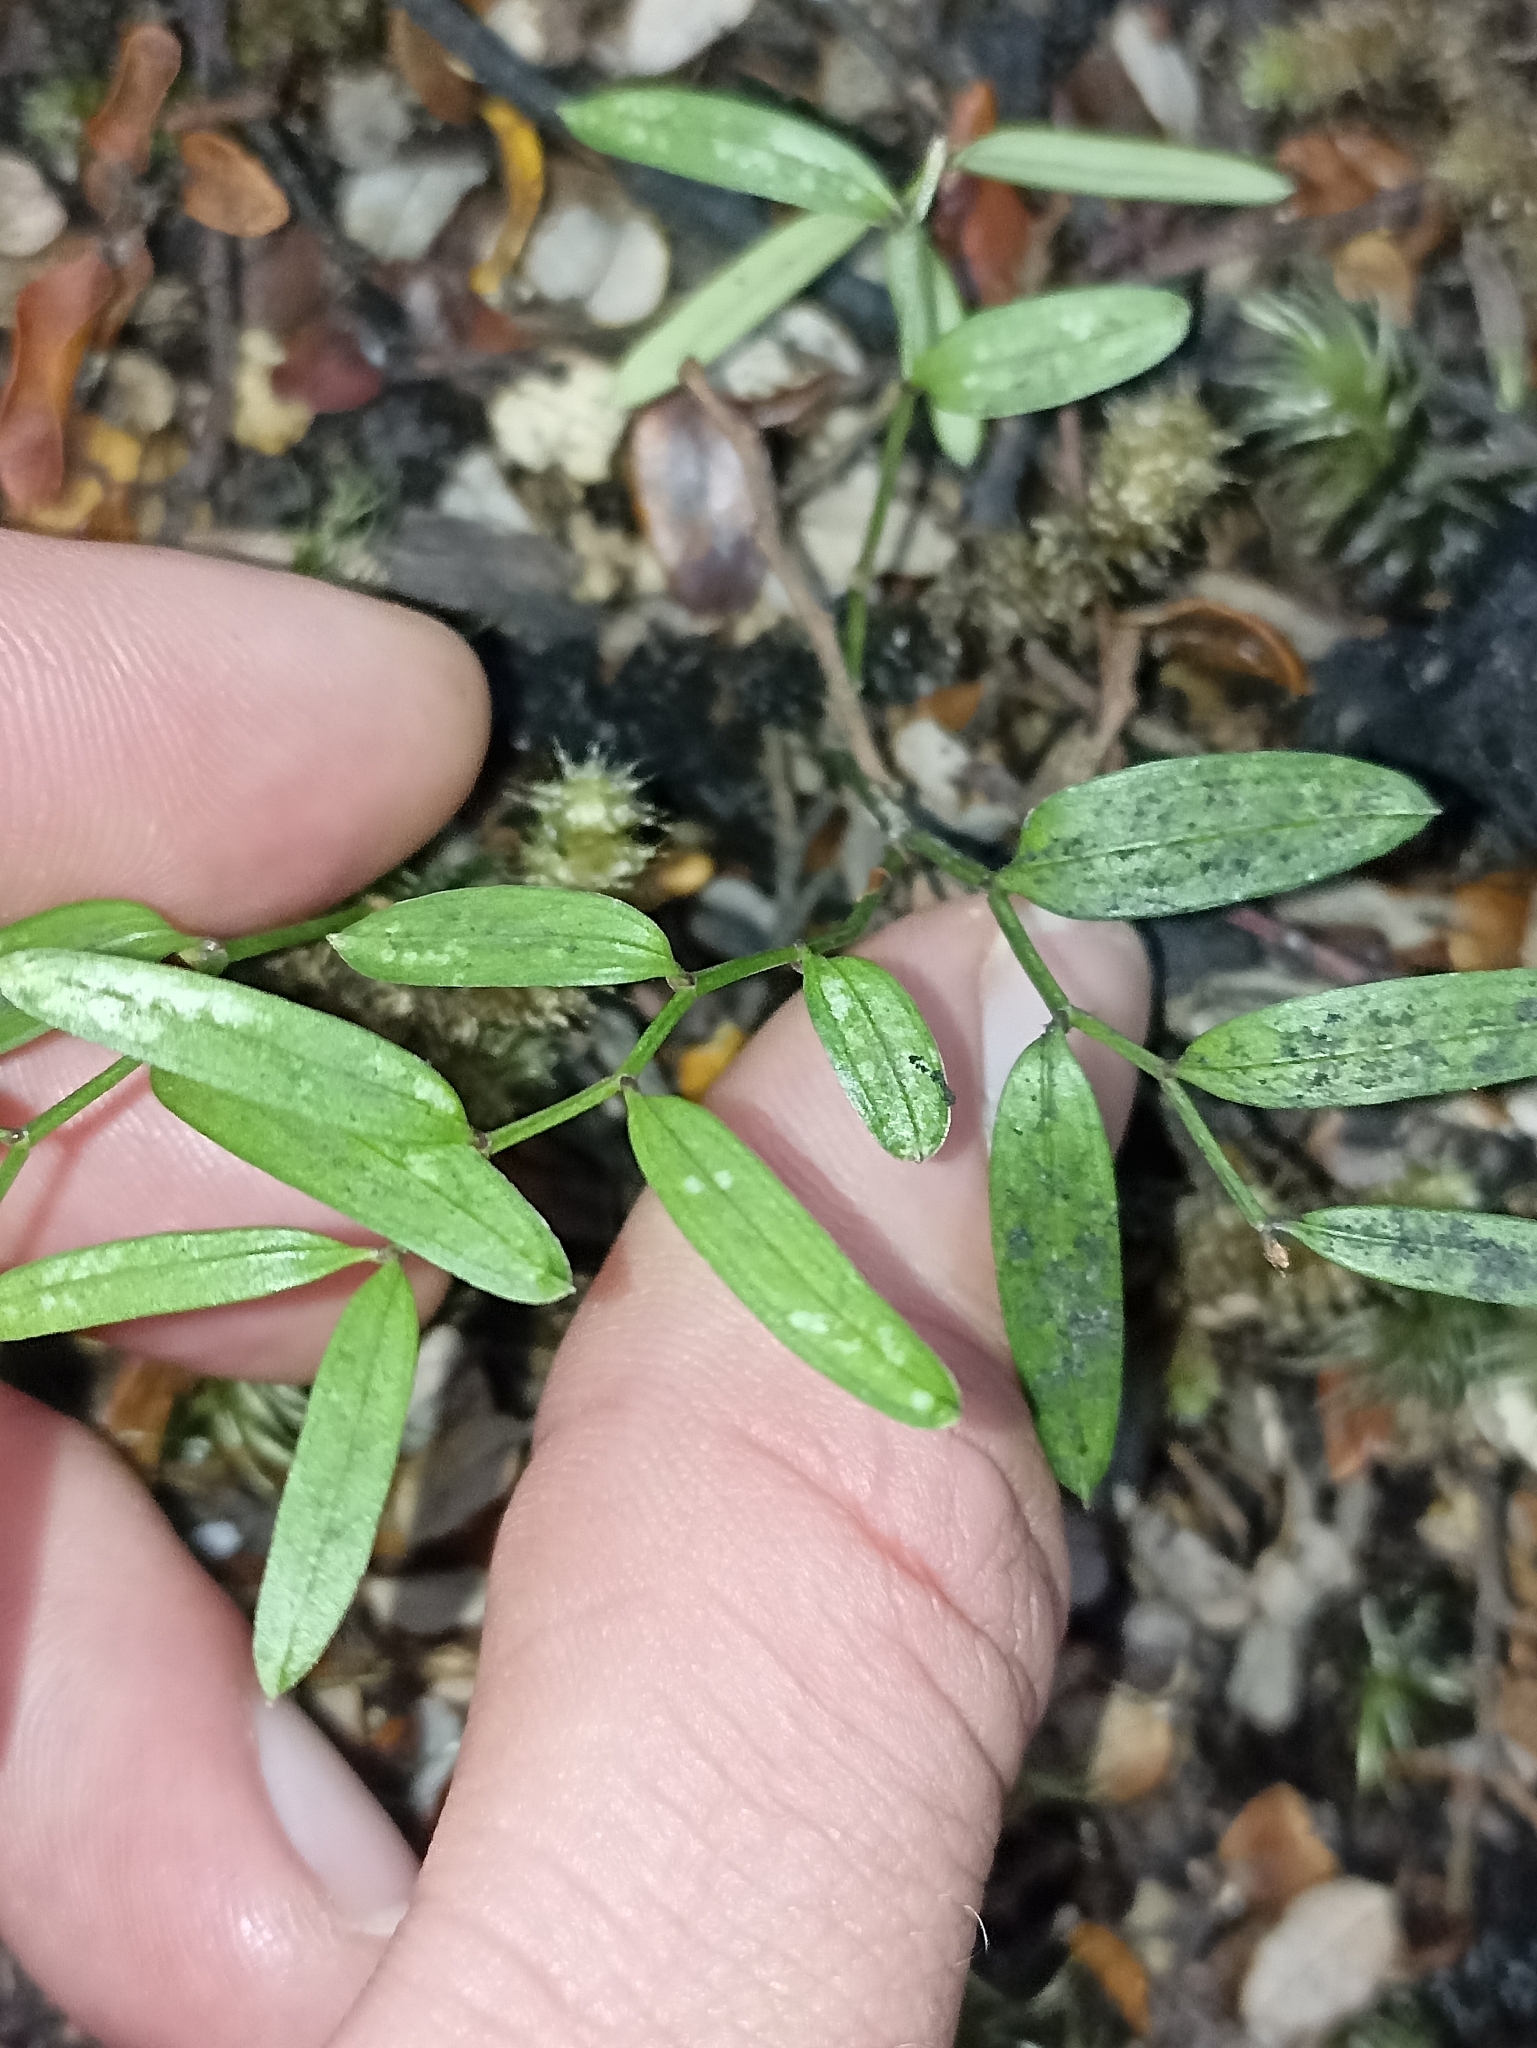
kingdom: Plantae
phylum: Tracheophyta
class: Liliopsida
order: Liliales
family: Alstroemeriaceae
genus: Luzuriaga
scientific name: Luzuriaga parviflora
